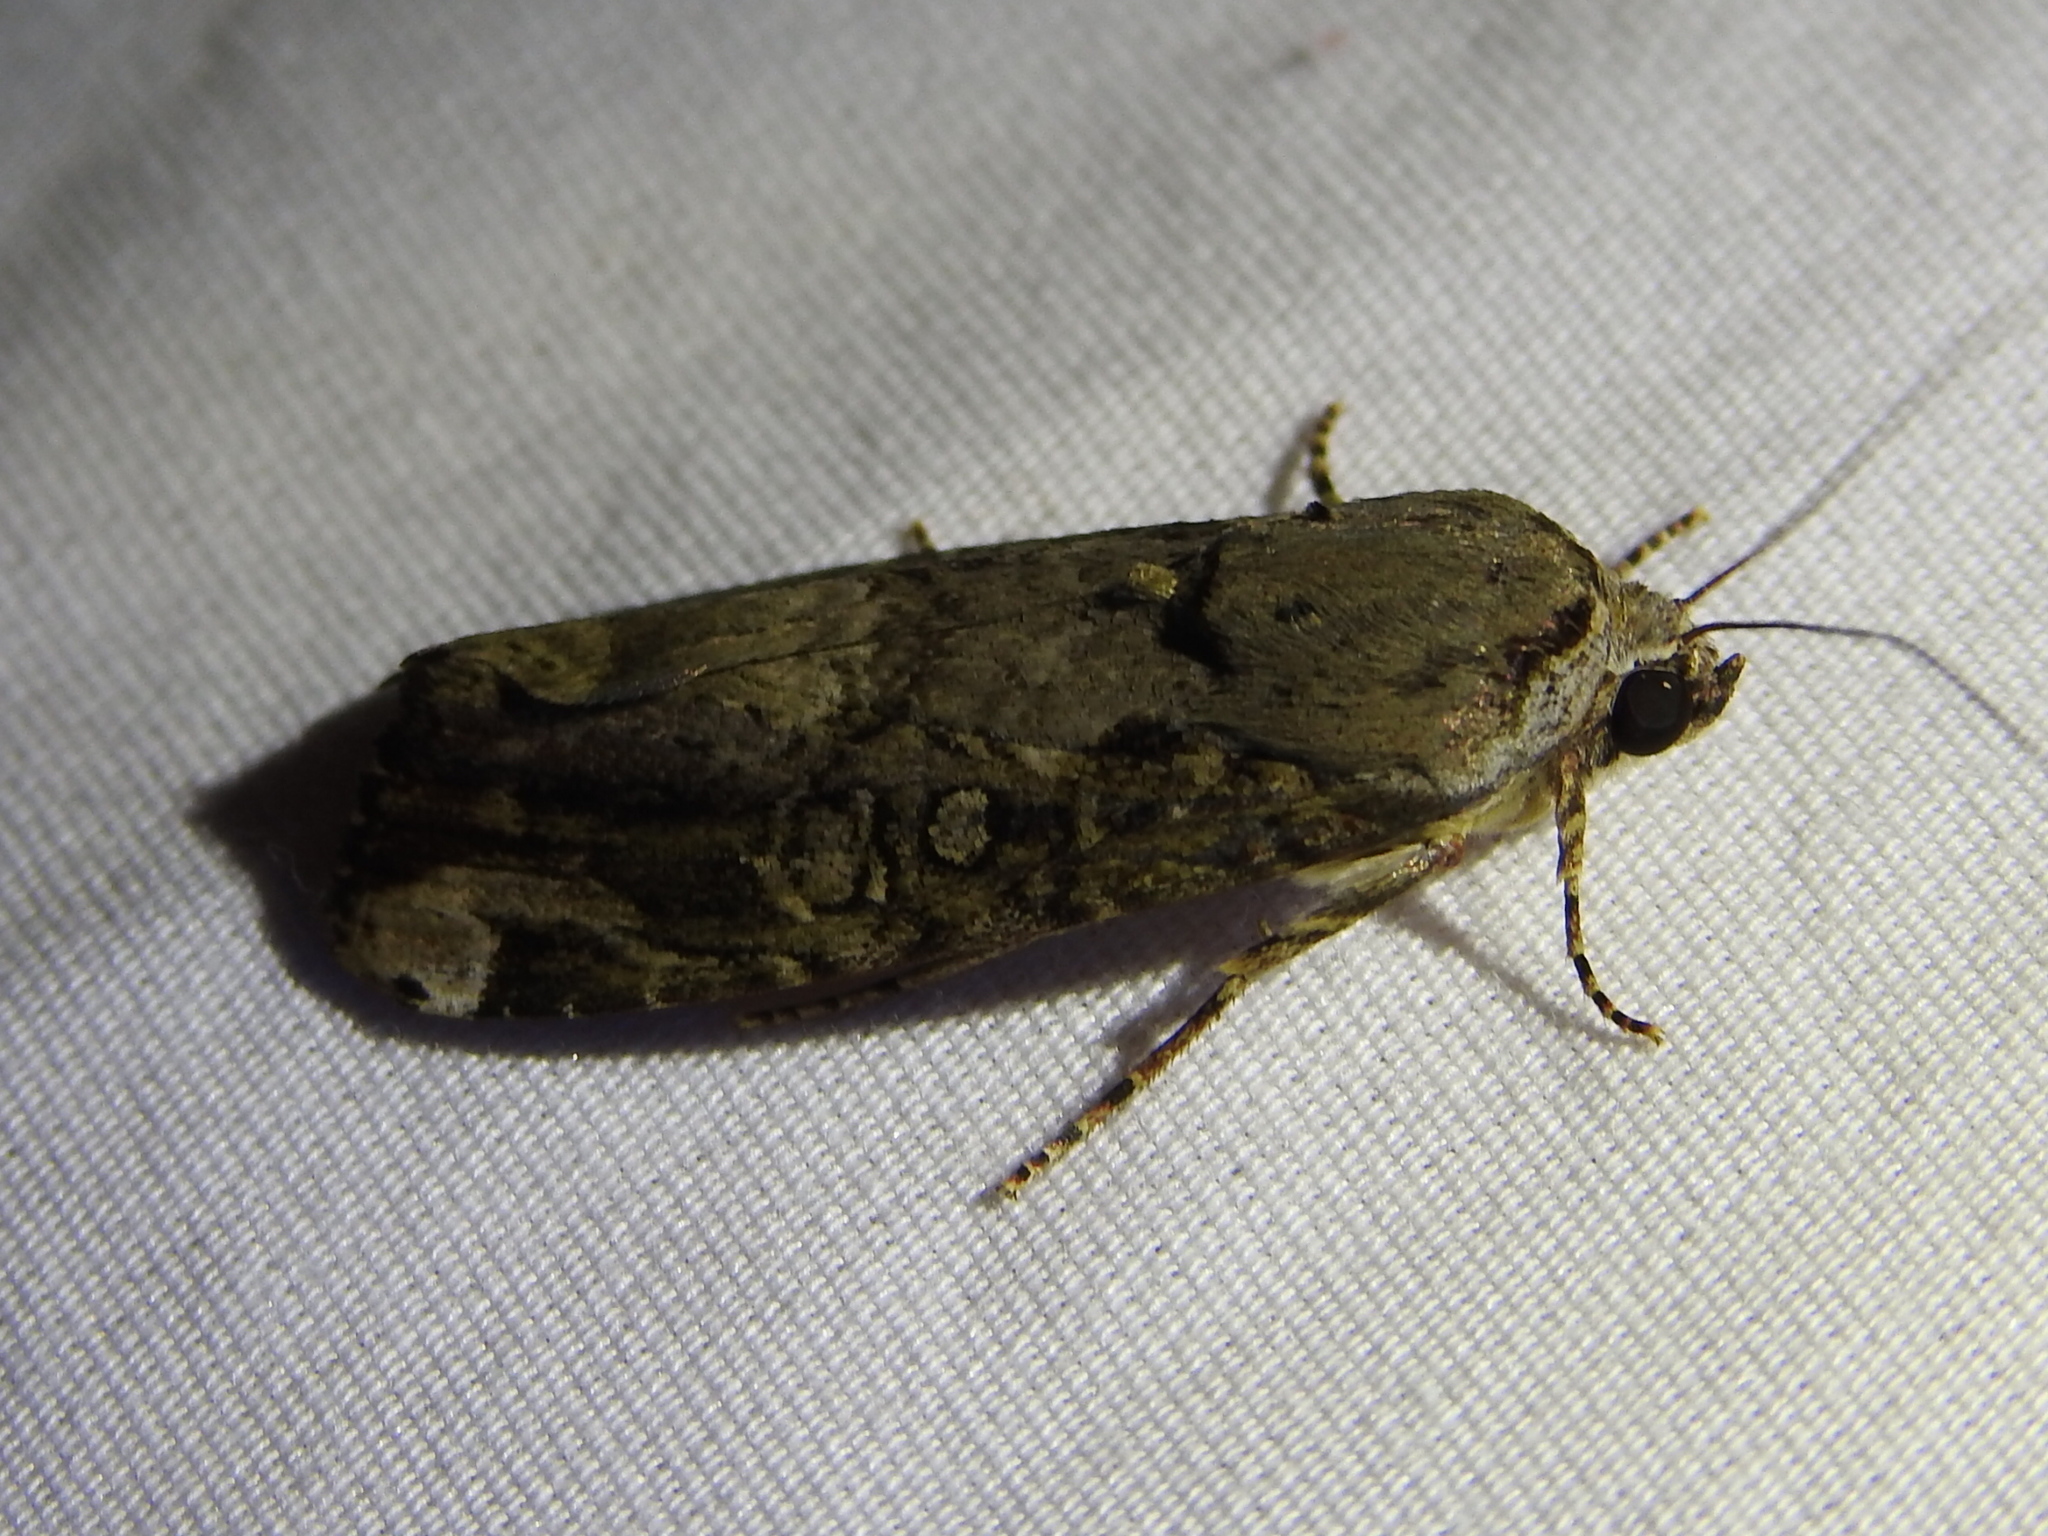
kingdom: Animalia
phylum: Arthropoda
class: Insecta
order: Lepidoptera
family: Noctuidae
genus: Magusa
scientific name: Magusa divaricata
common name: Orb narrow-winged moth
